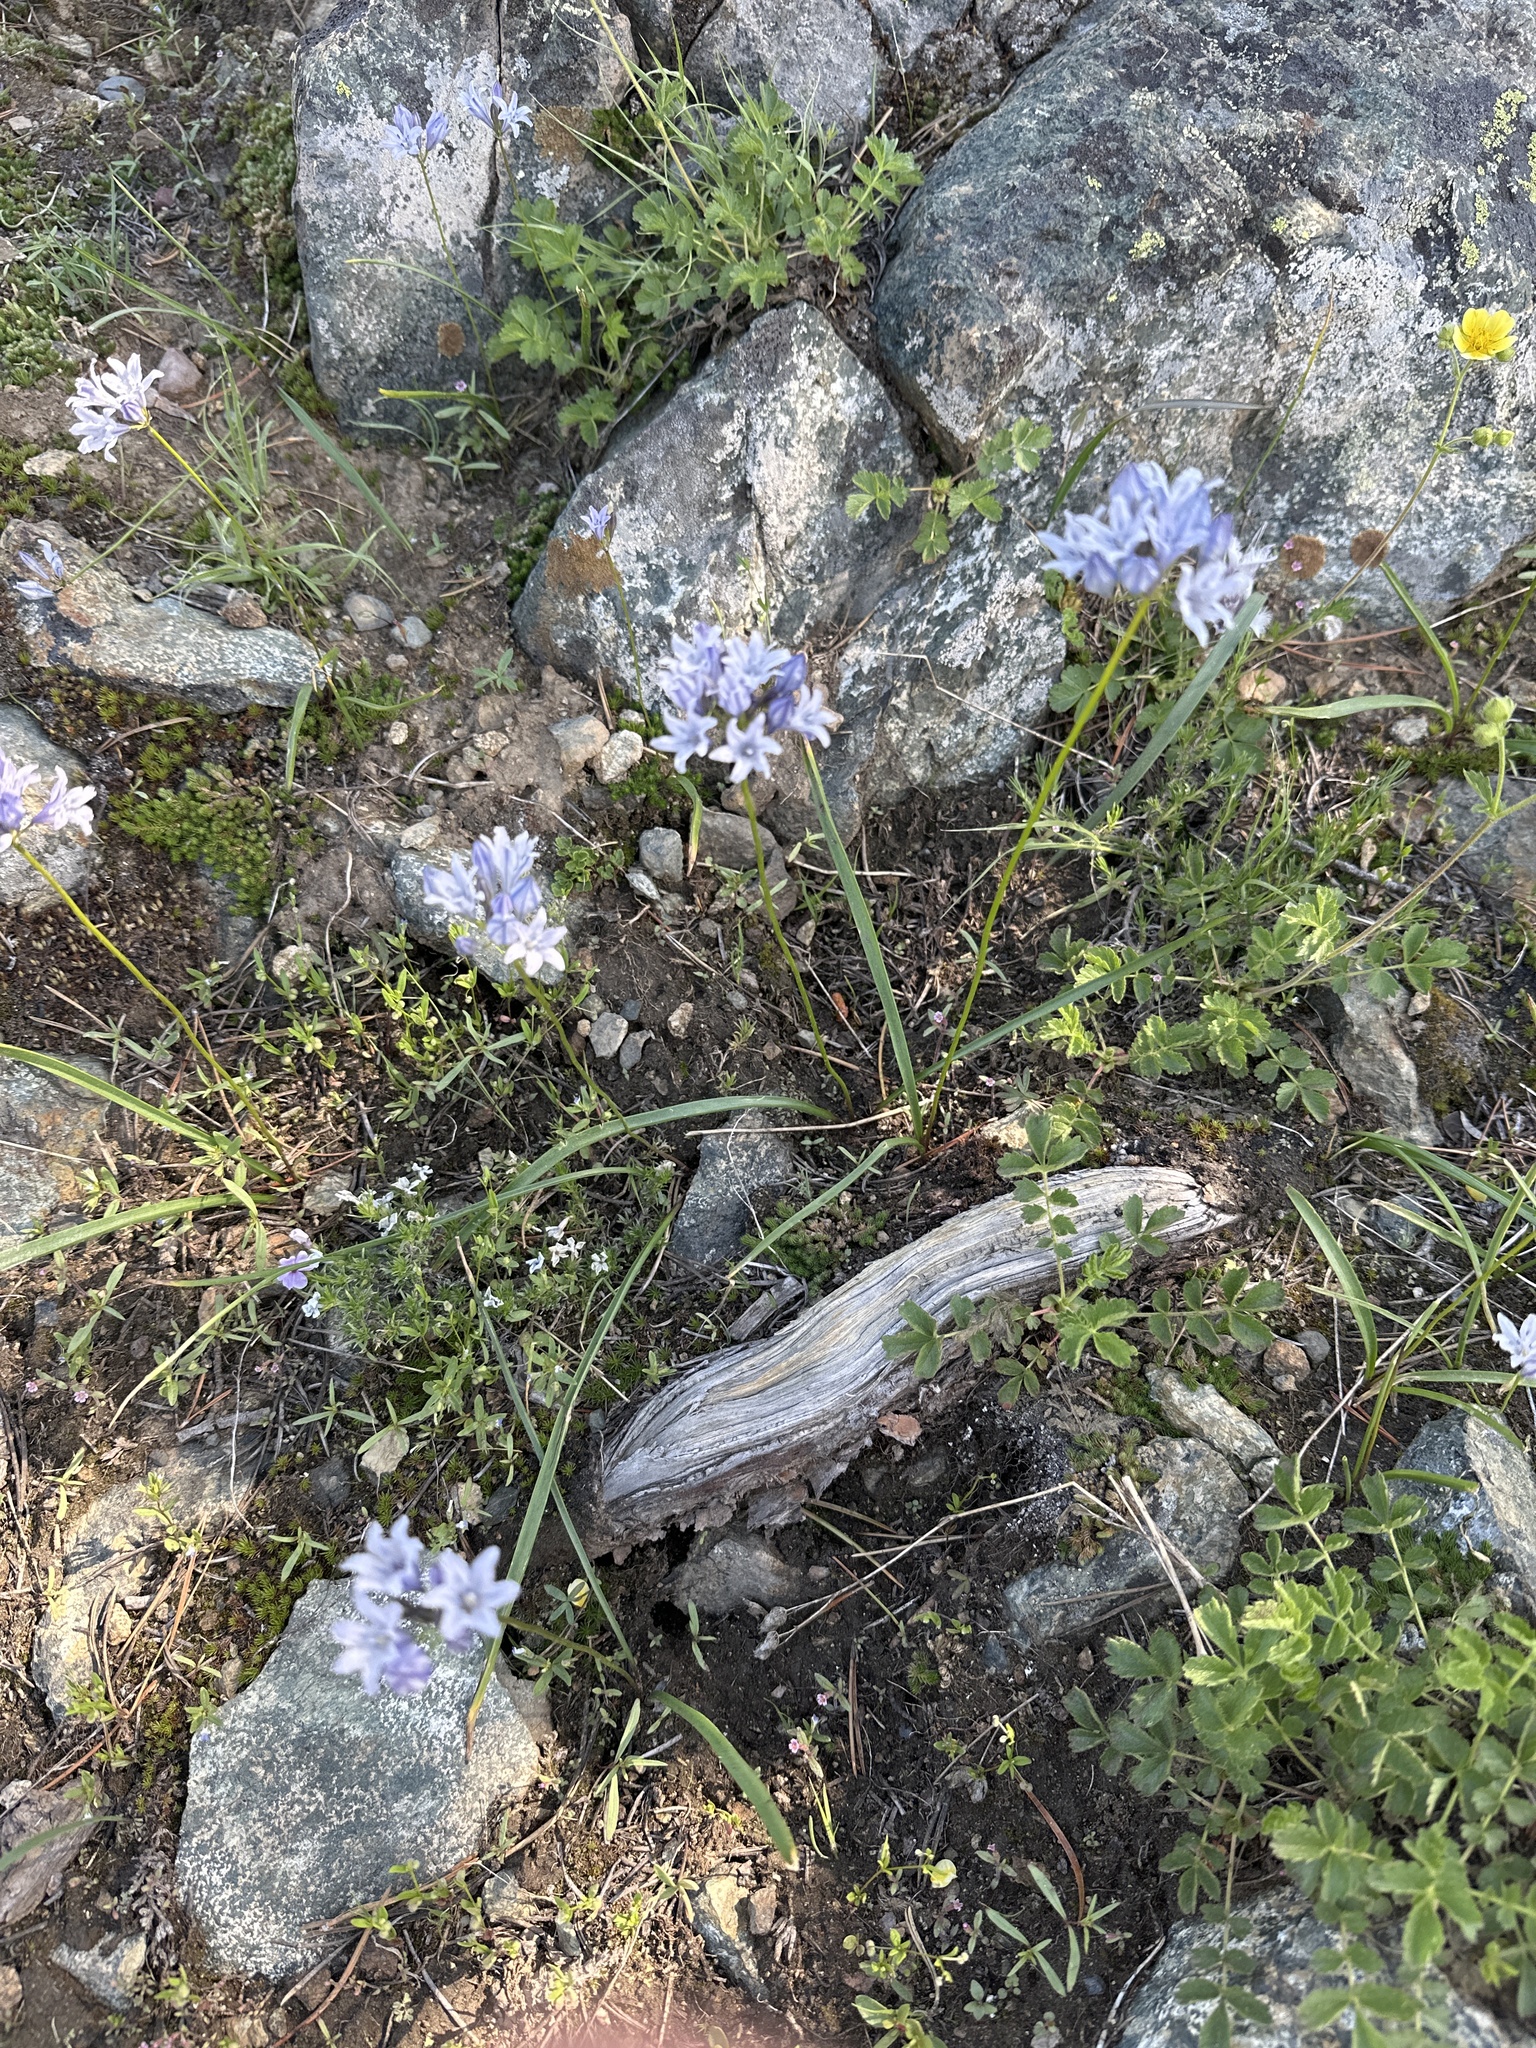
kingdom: Plantae
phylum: Tracheophyta
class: Liliopsida
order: Asparagales
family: Asparagaceae
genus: Triteleia
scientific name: Triteleia crocea
